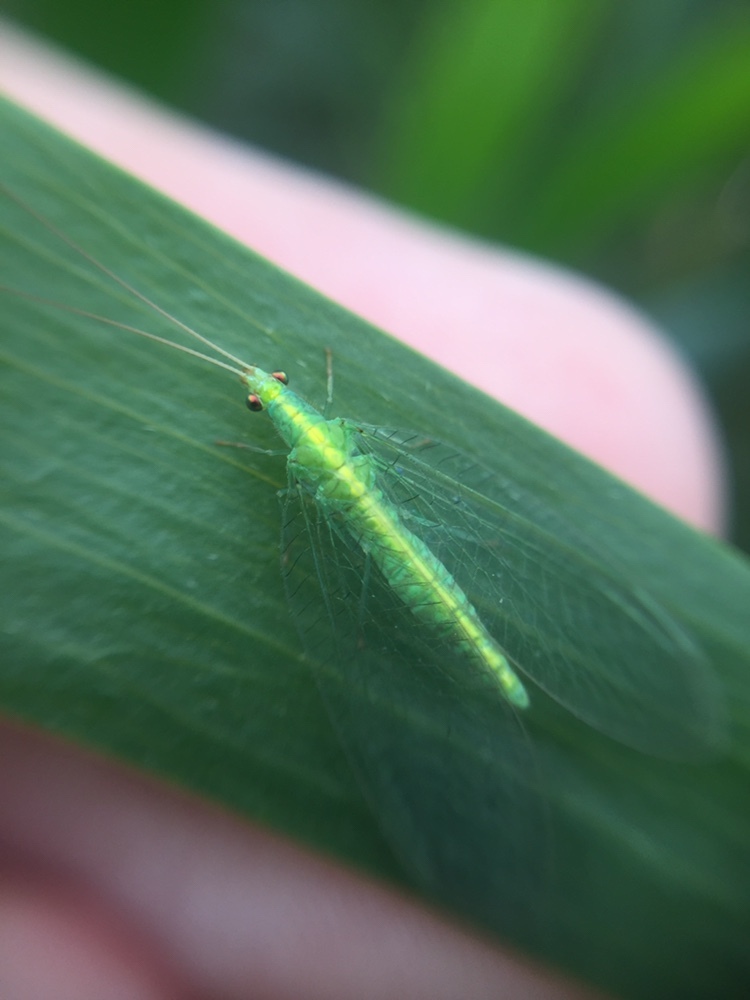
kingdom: Animalia
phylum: Arthropoda
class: Insecta
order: Neuroptera
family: Chrysopidae
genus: Mallada
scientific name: Mallada basalis
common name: Green lacewing
